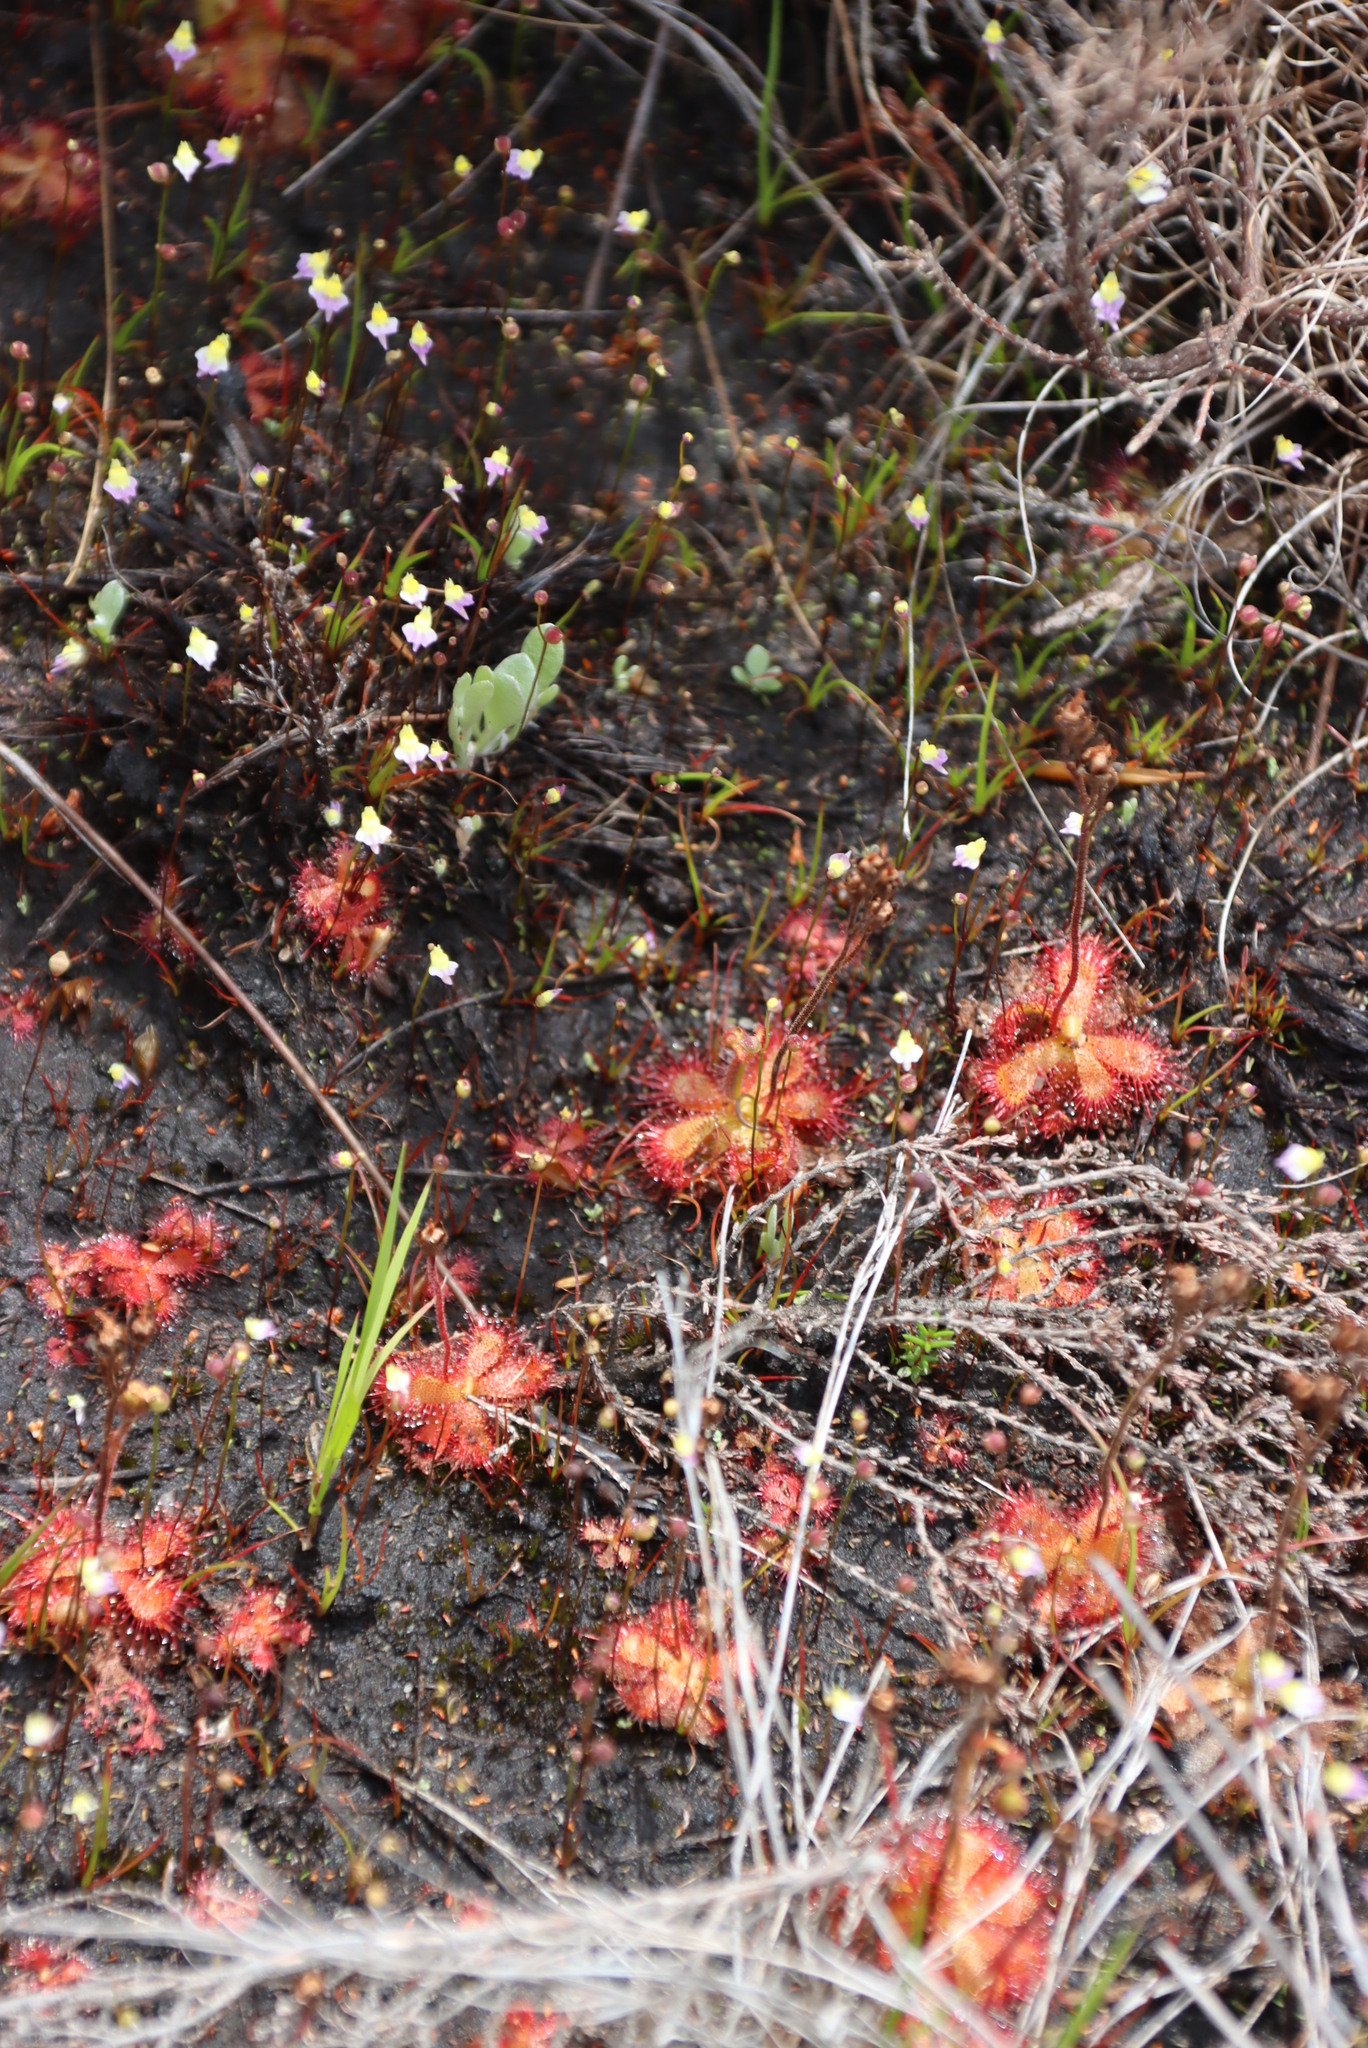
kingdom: Plantae
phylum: Tracheophyta
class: Magnoliopsida
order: Caryophyllales
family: Droseraceae
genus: Drosera
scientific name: Drosera trinervia
